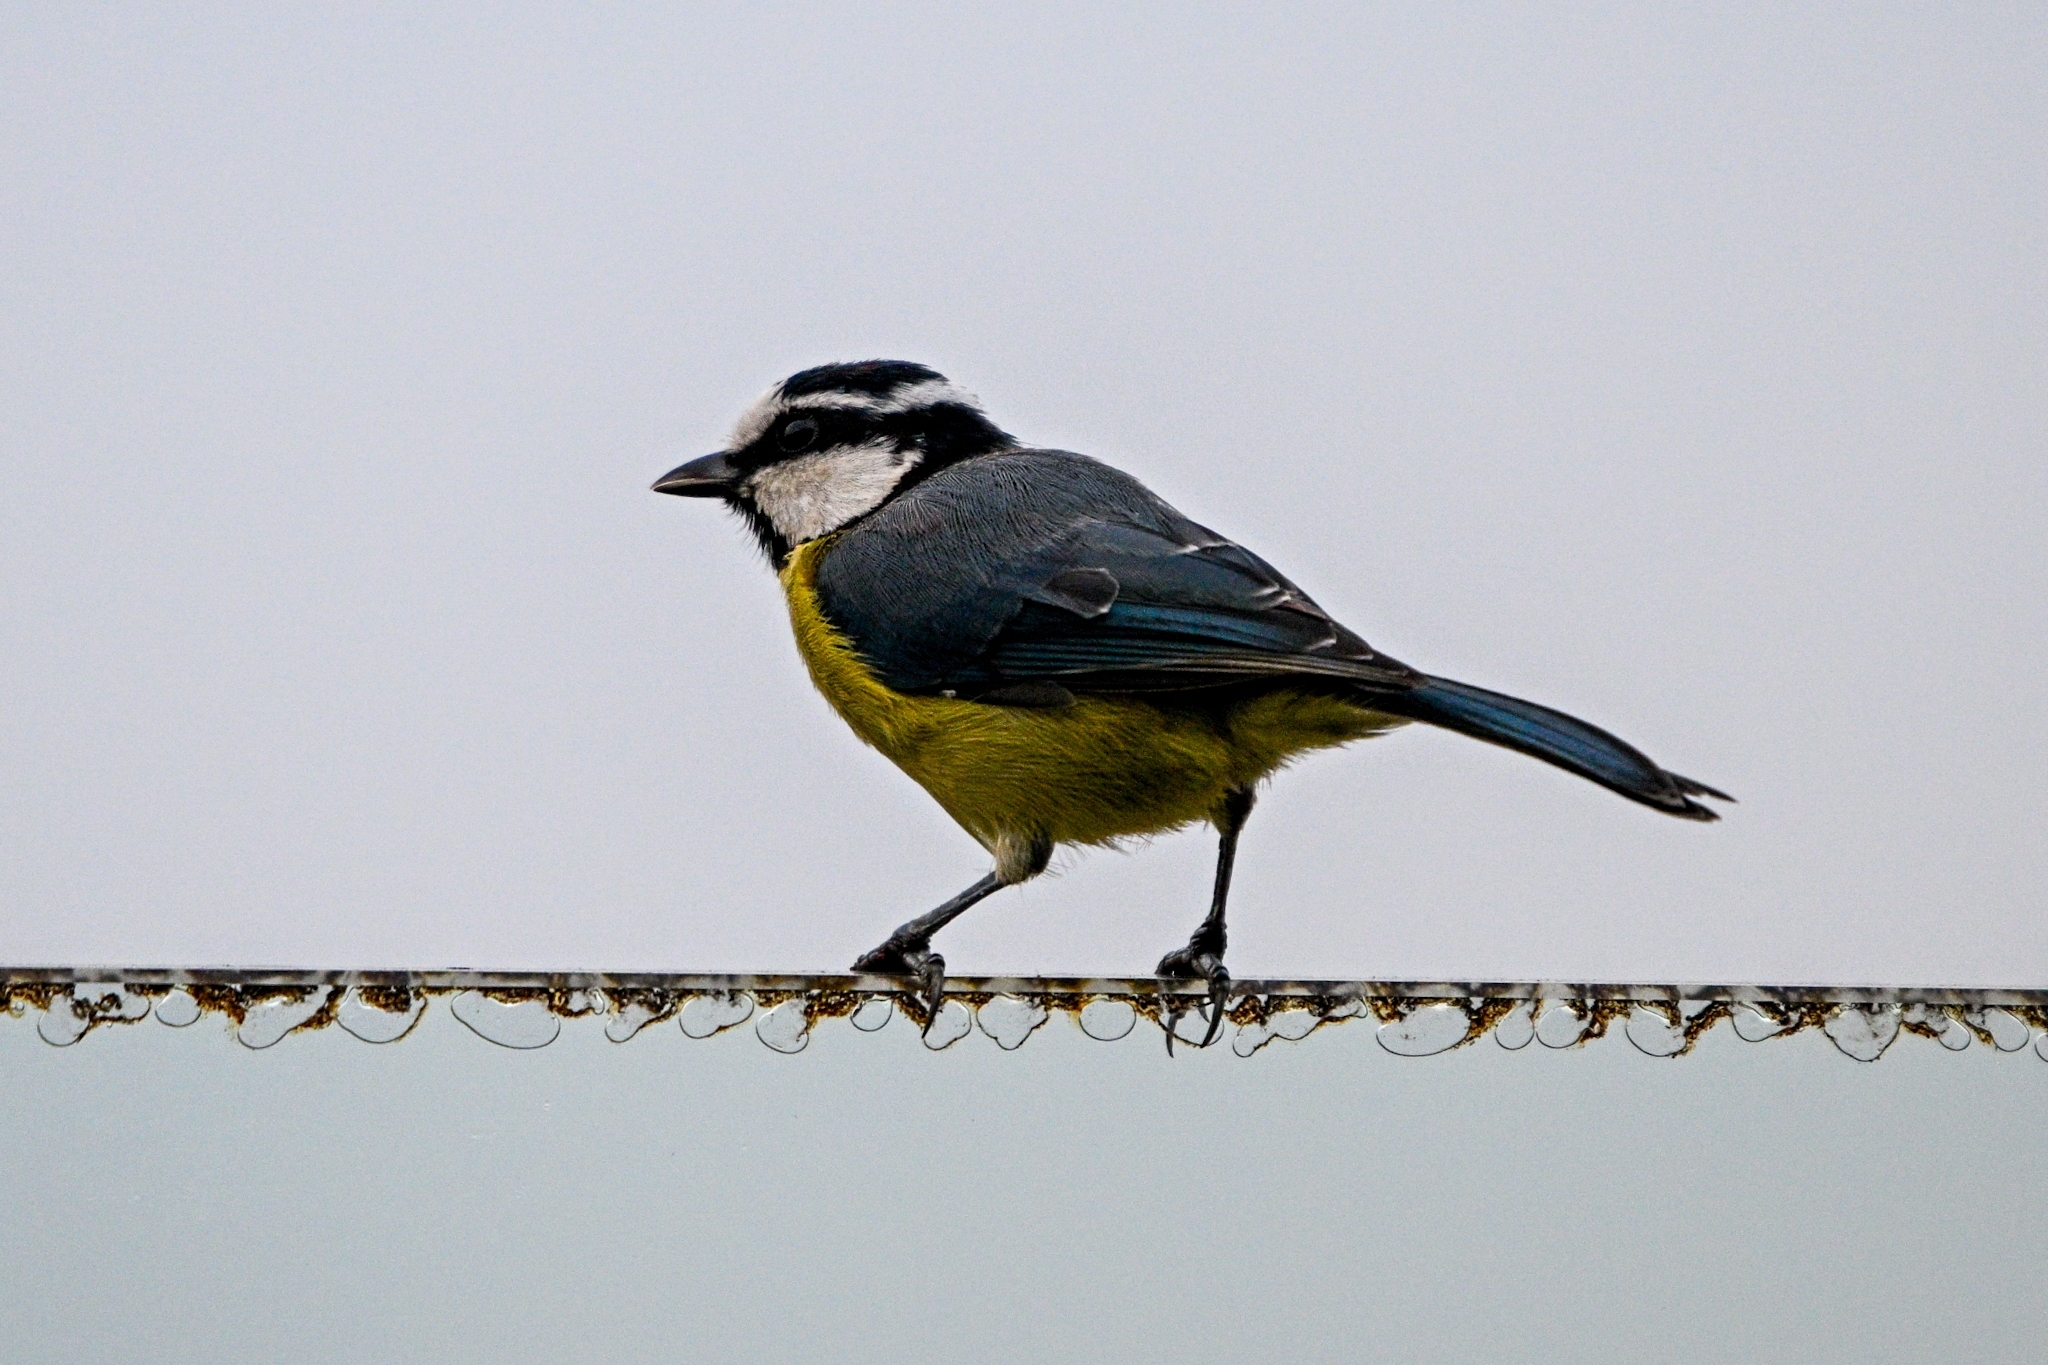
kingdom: Animalia
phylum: Chordata
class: Aves
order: Passeriformes
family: Paridae
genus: Cyanistes
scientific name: Cyanistes teneriffae
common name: African blue tit
